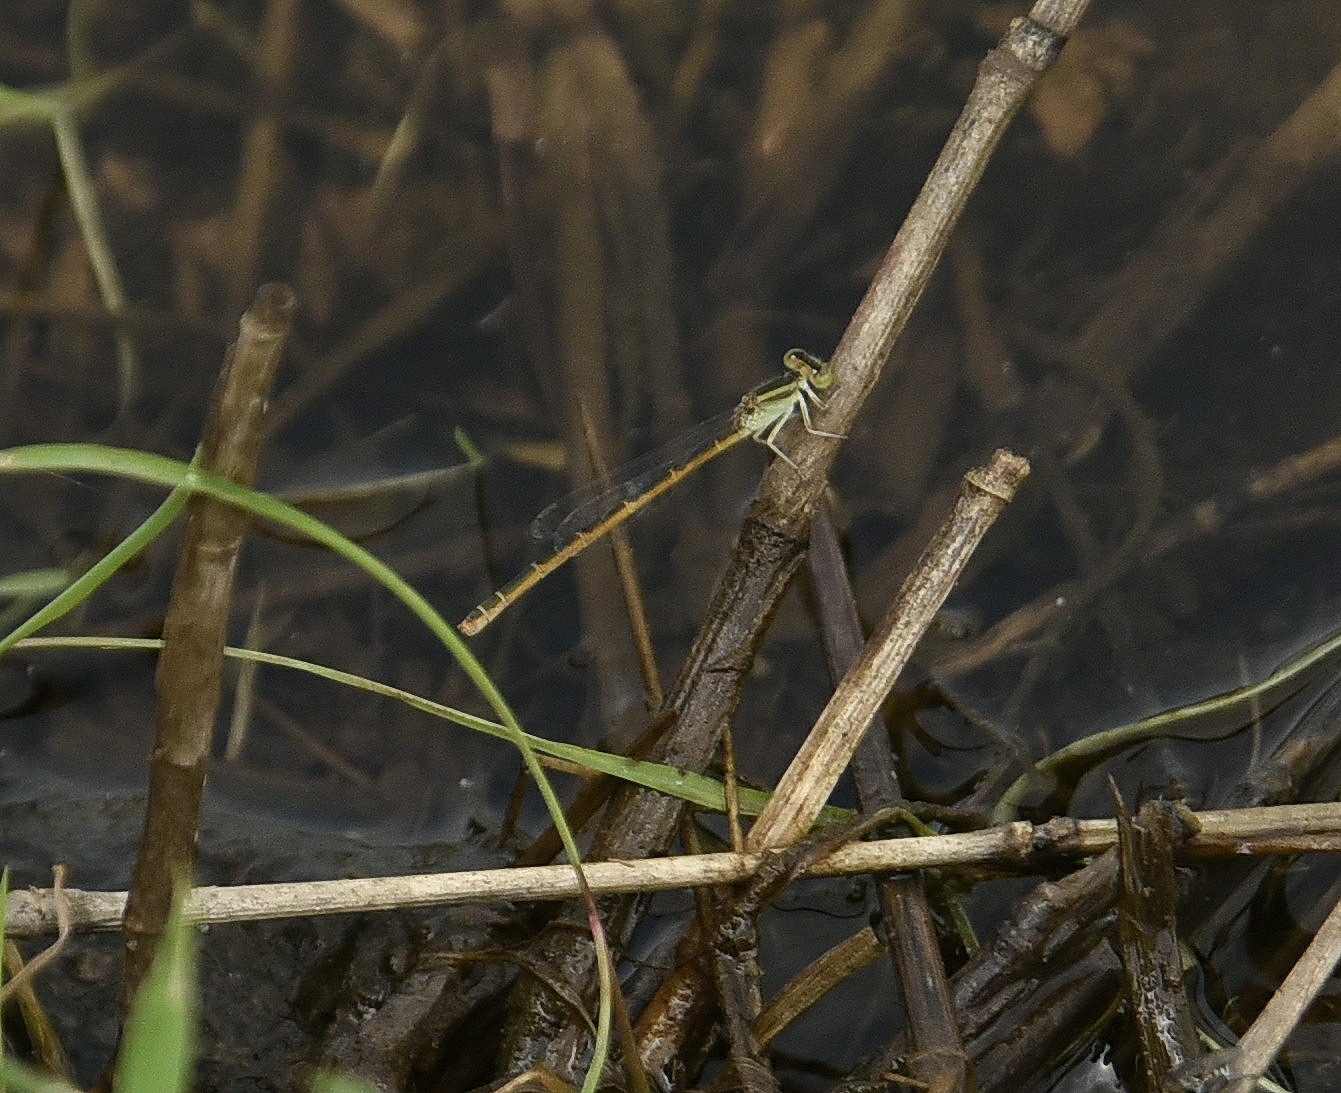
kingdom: Animalia
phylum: Arthropoda
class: Insecta
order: Odonata
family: Coenagrionidae
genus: Ischnura
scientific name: Ischnura rubilio
